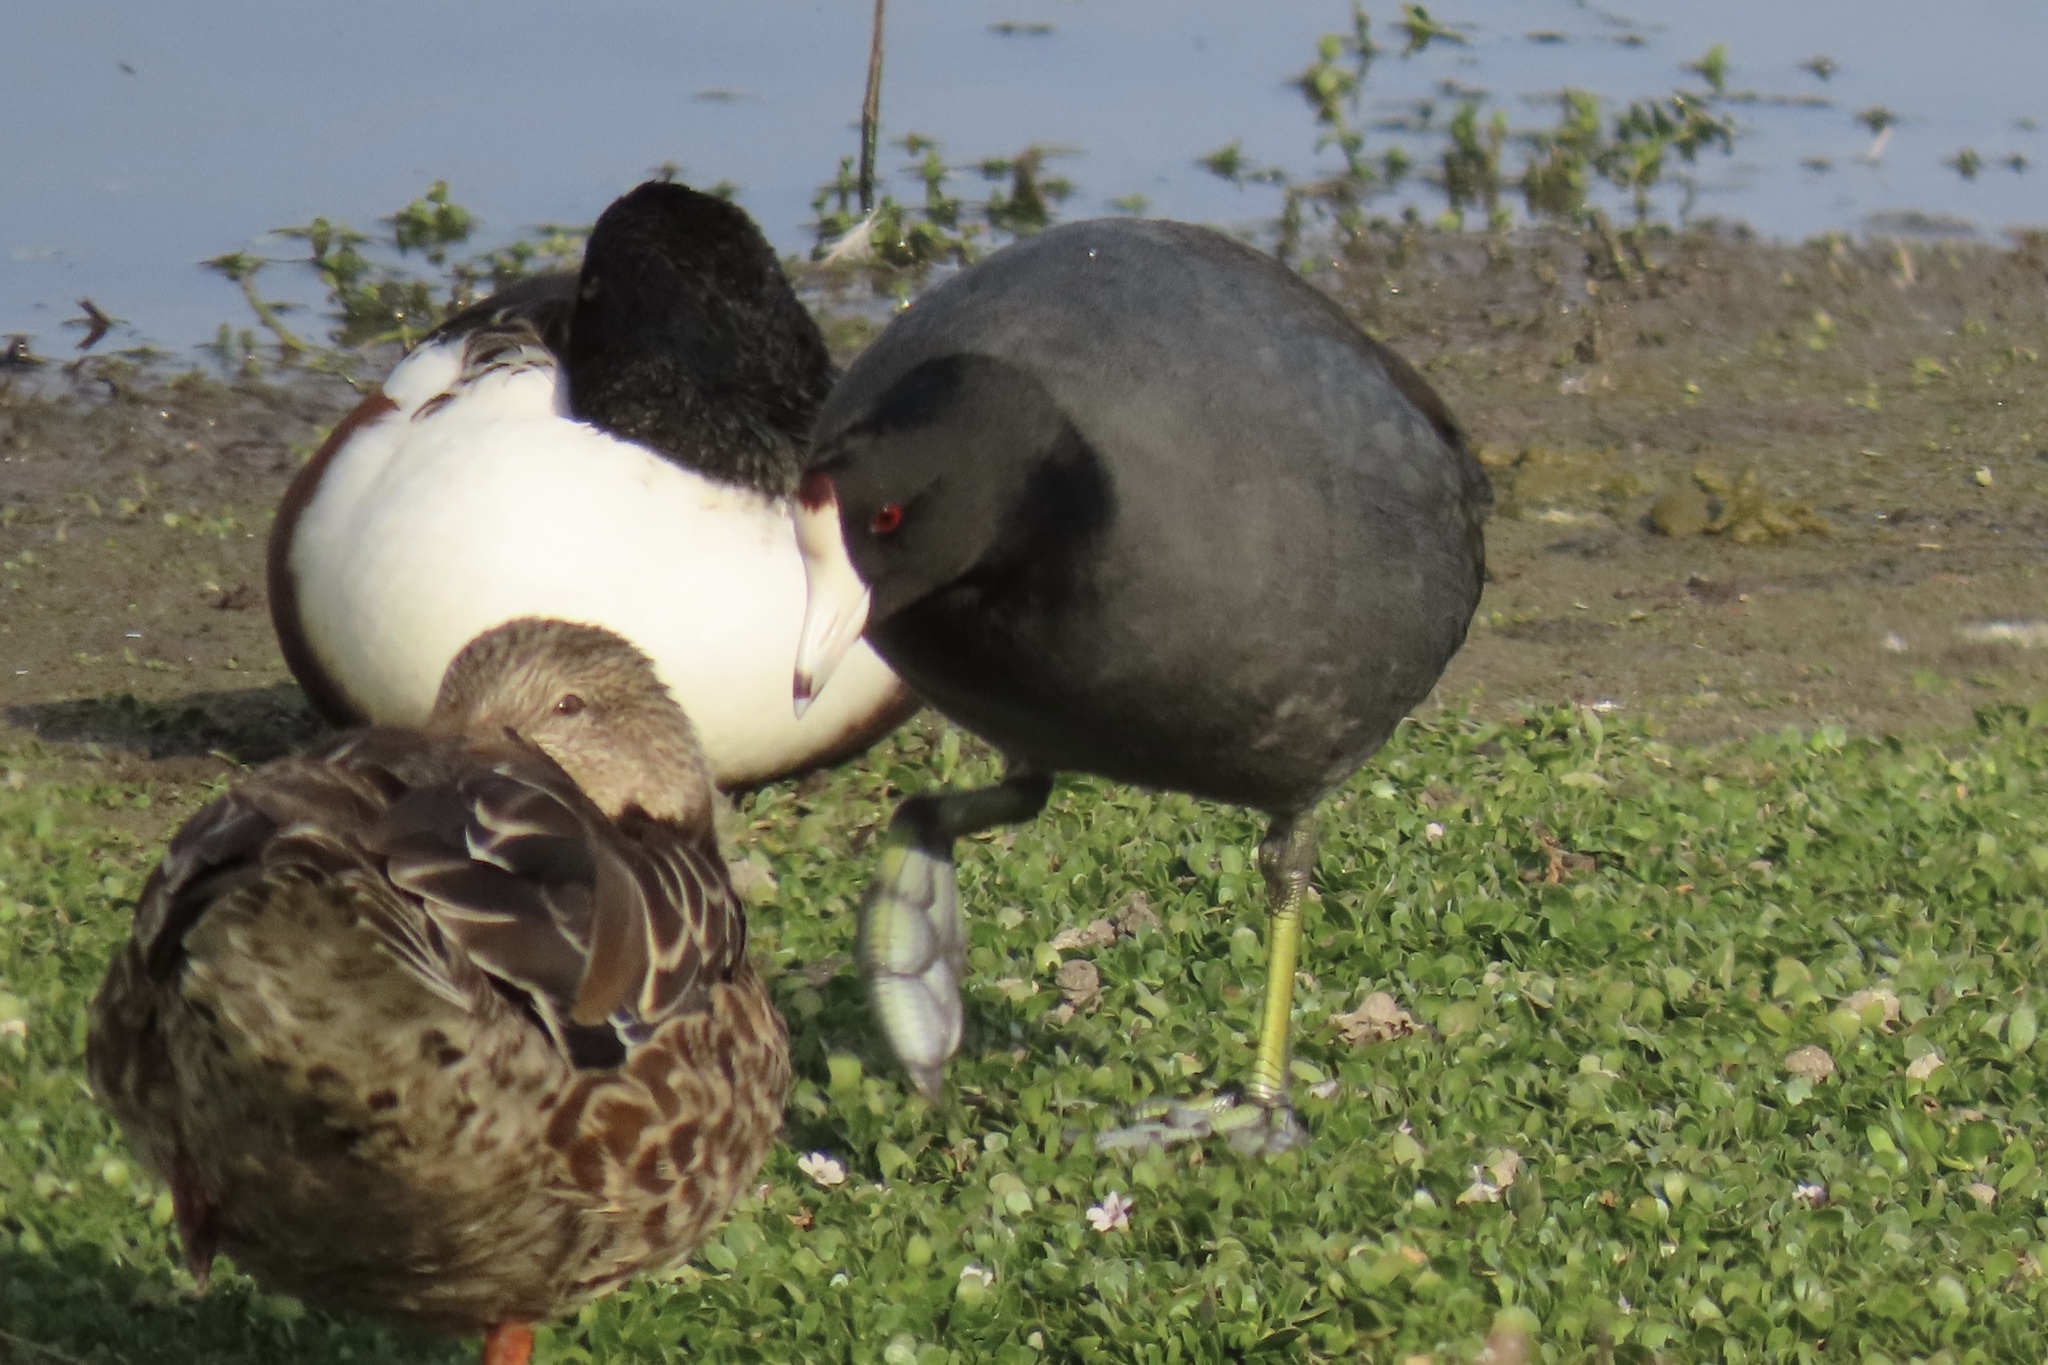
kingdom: Animalia
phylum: Chordata
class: Aves
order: Gruiformes
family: Rallidae
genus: Fulica
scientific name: Fulica americana
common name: American coot
